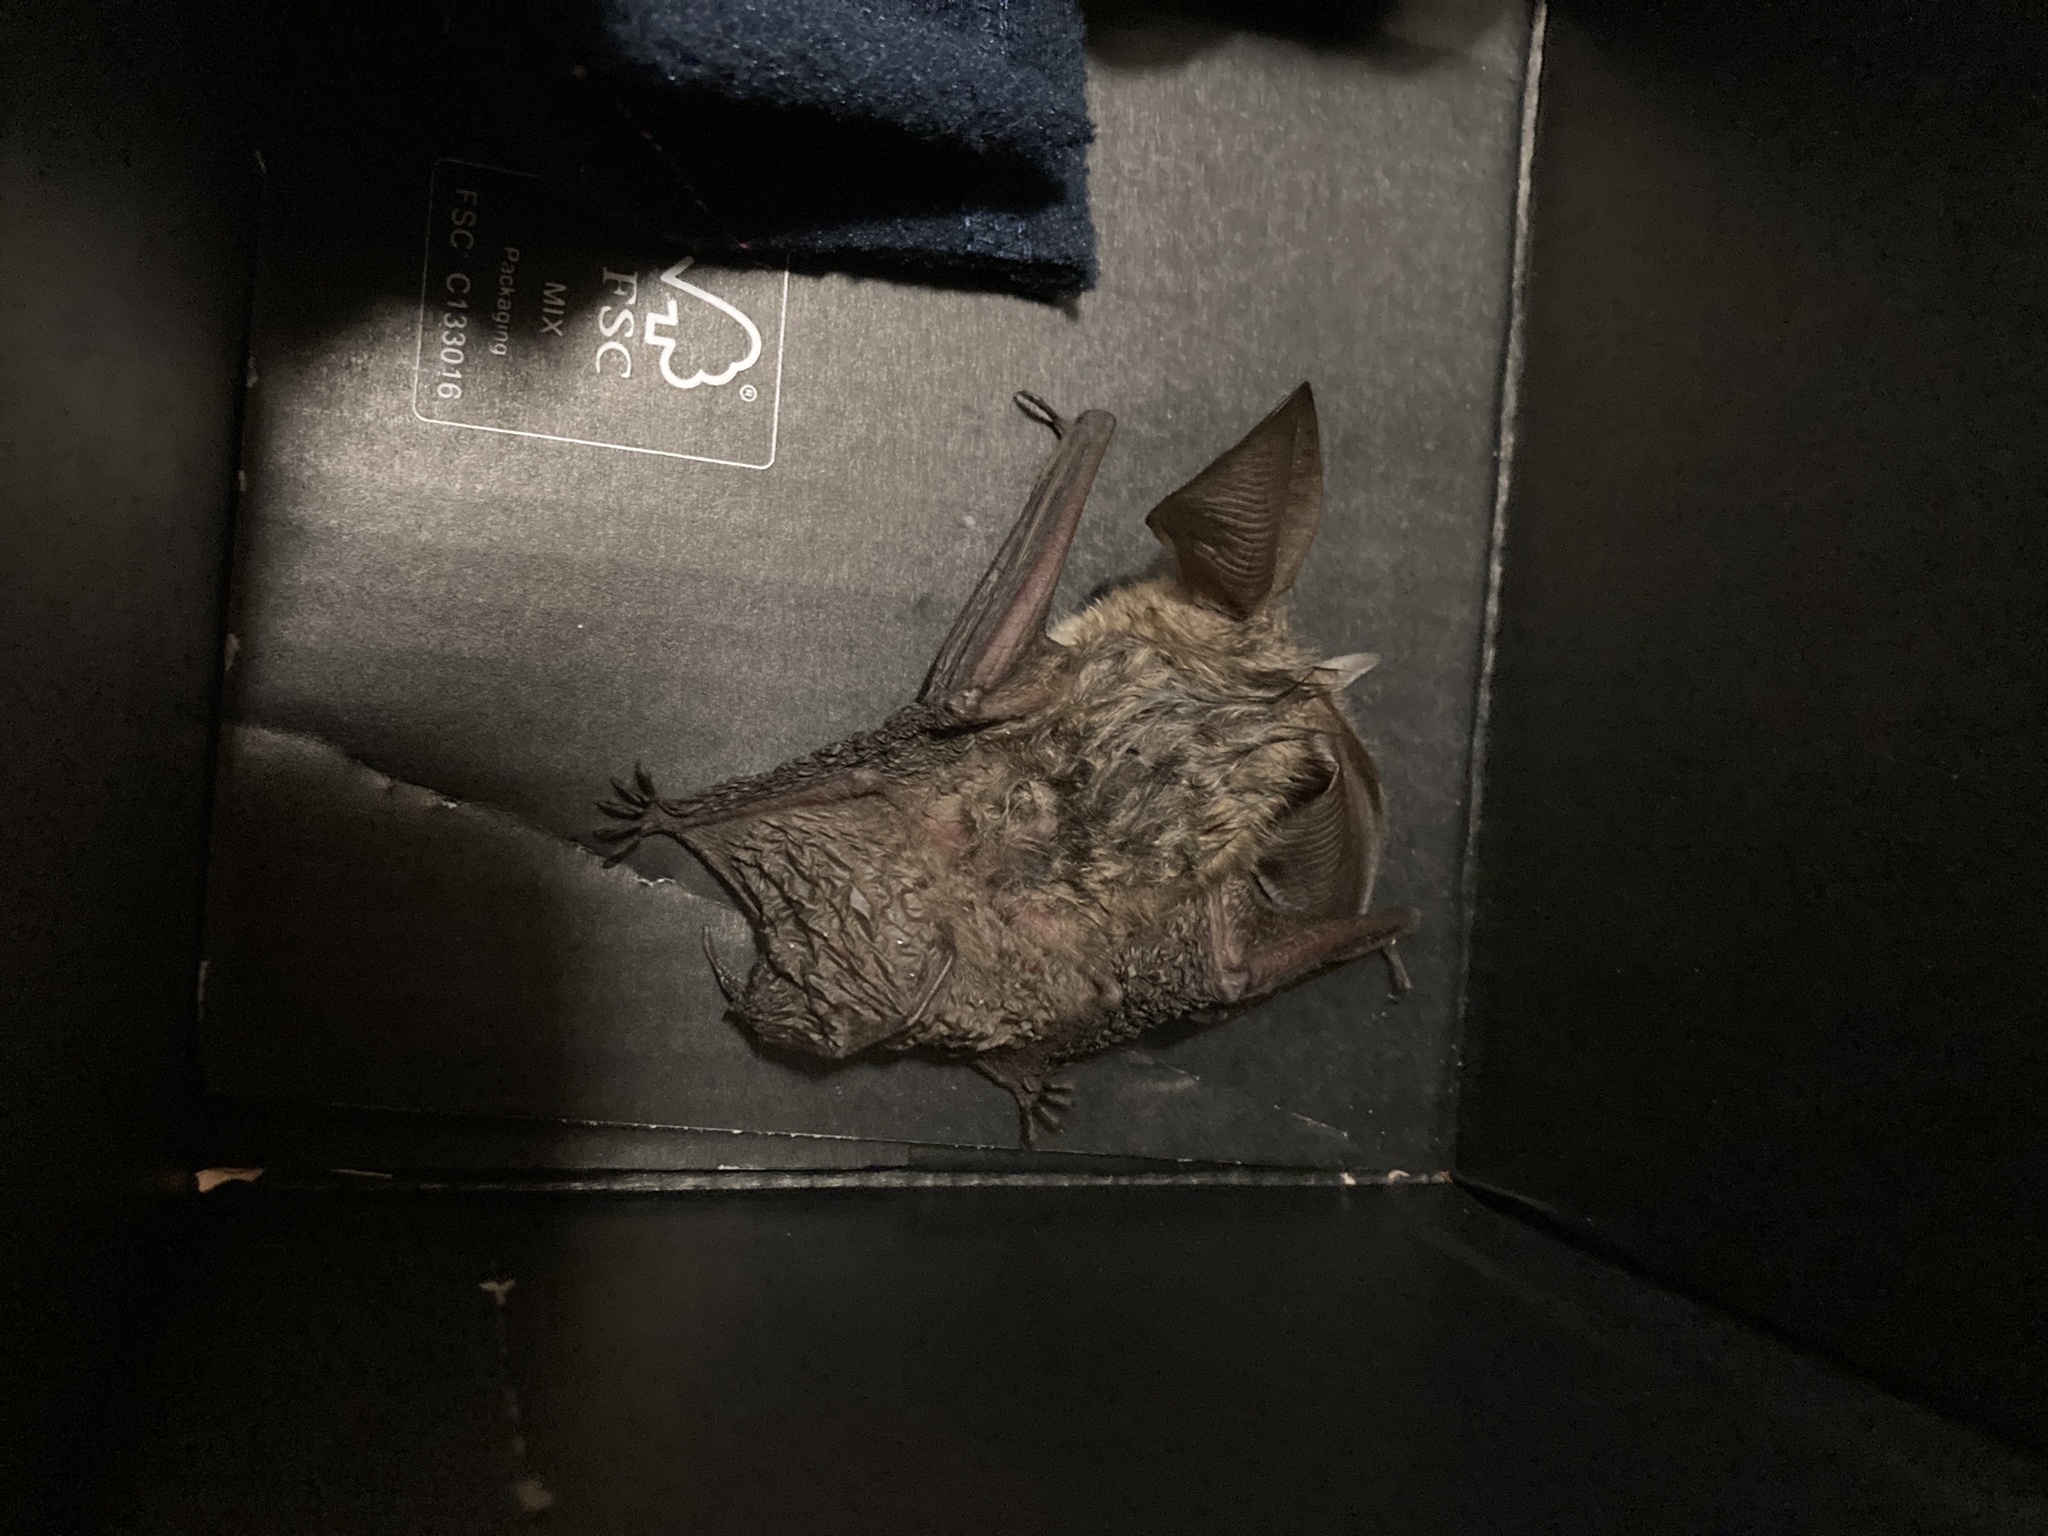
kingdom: Animalia
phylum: Chordata
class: Mammalia
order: Chiroptera
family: Vespertilionidae
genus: Plecotus
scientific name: Plecotus auritus
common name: Brown long-eared bat
